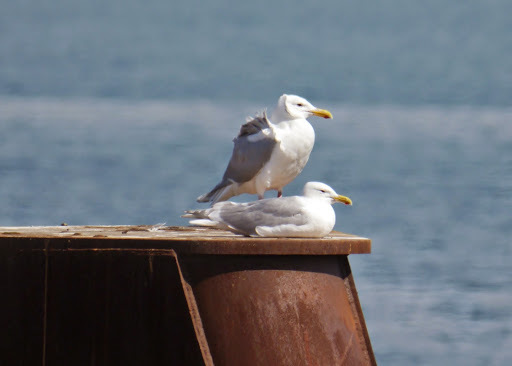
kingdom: Animalia
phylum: Chordata
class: Aves
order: Charadriiformes
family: Laridae
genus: Larus
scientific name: Larus glaucescens
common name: Glaucous-winged gull
